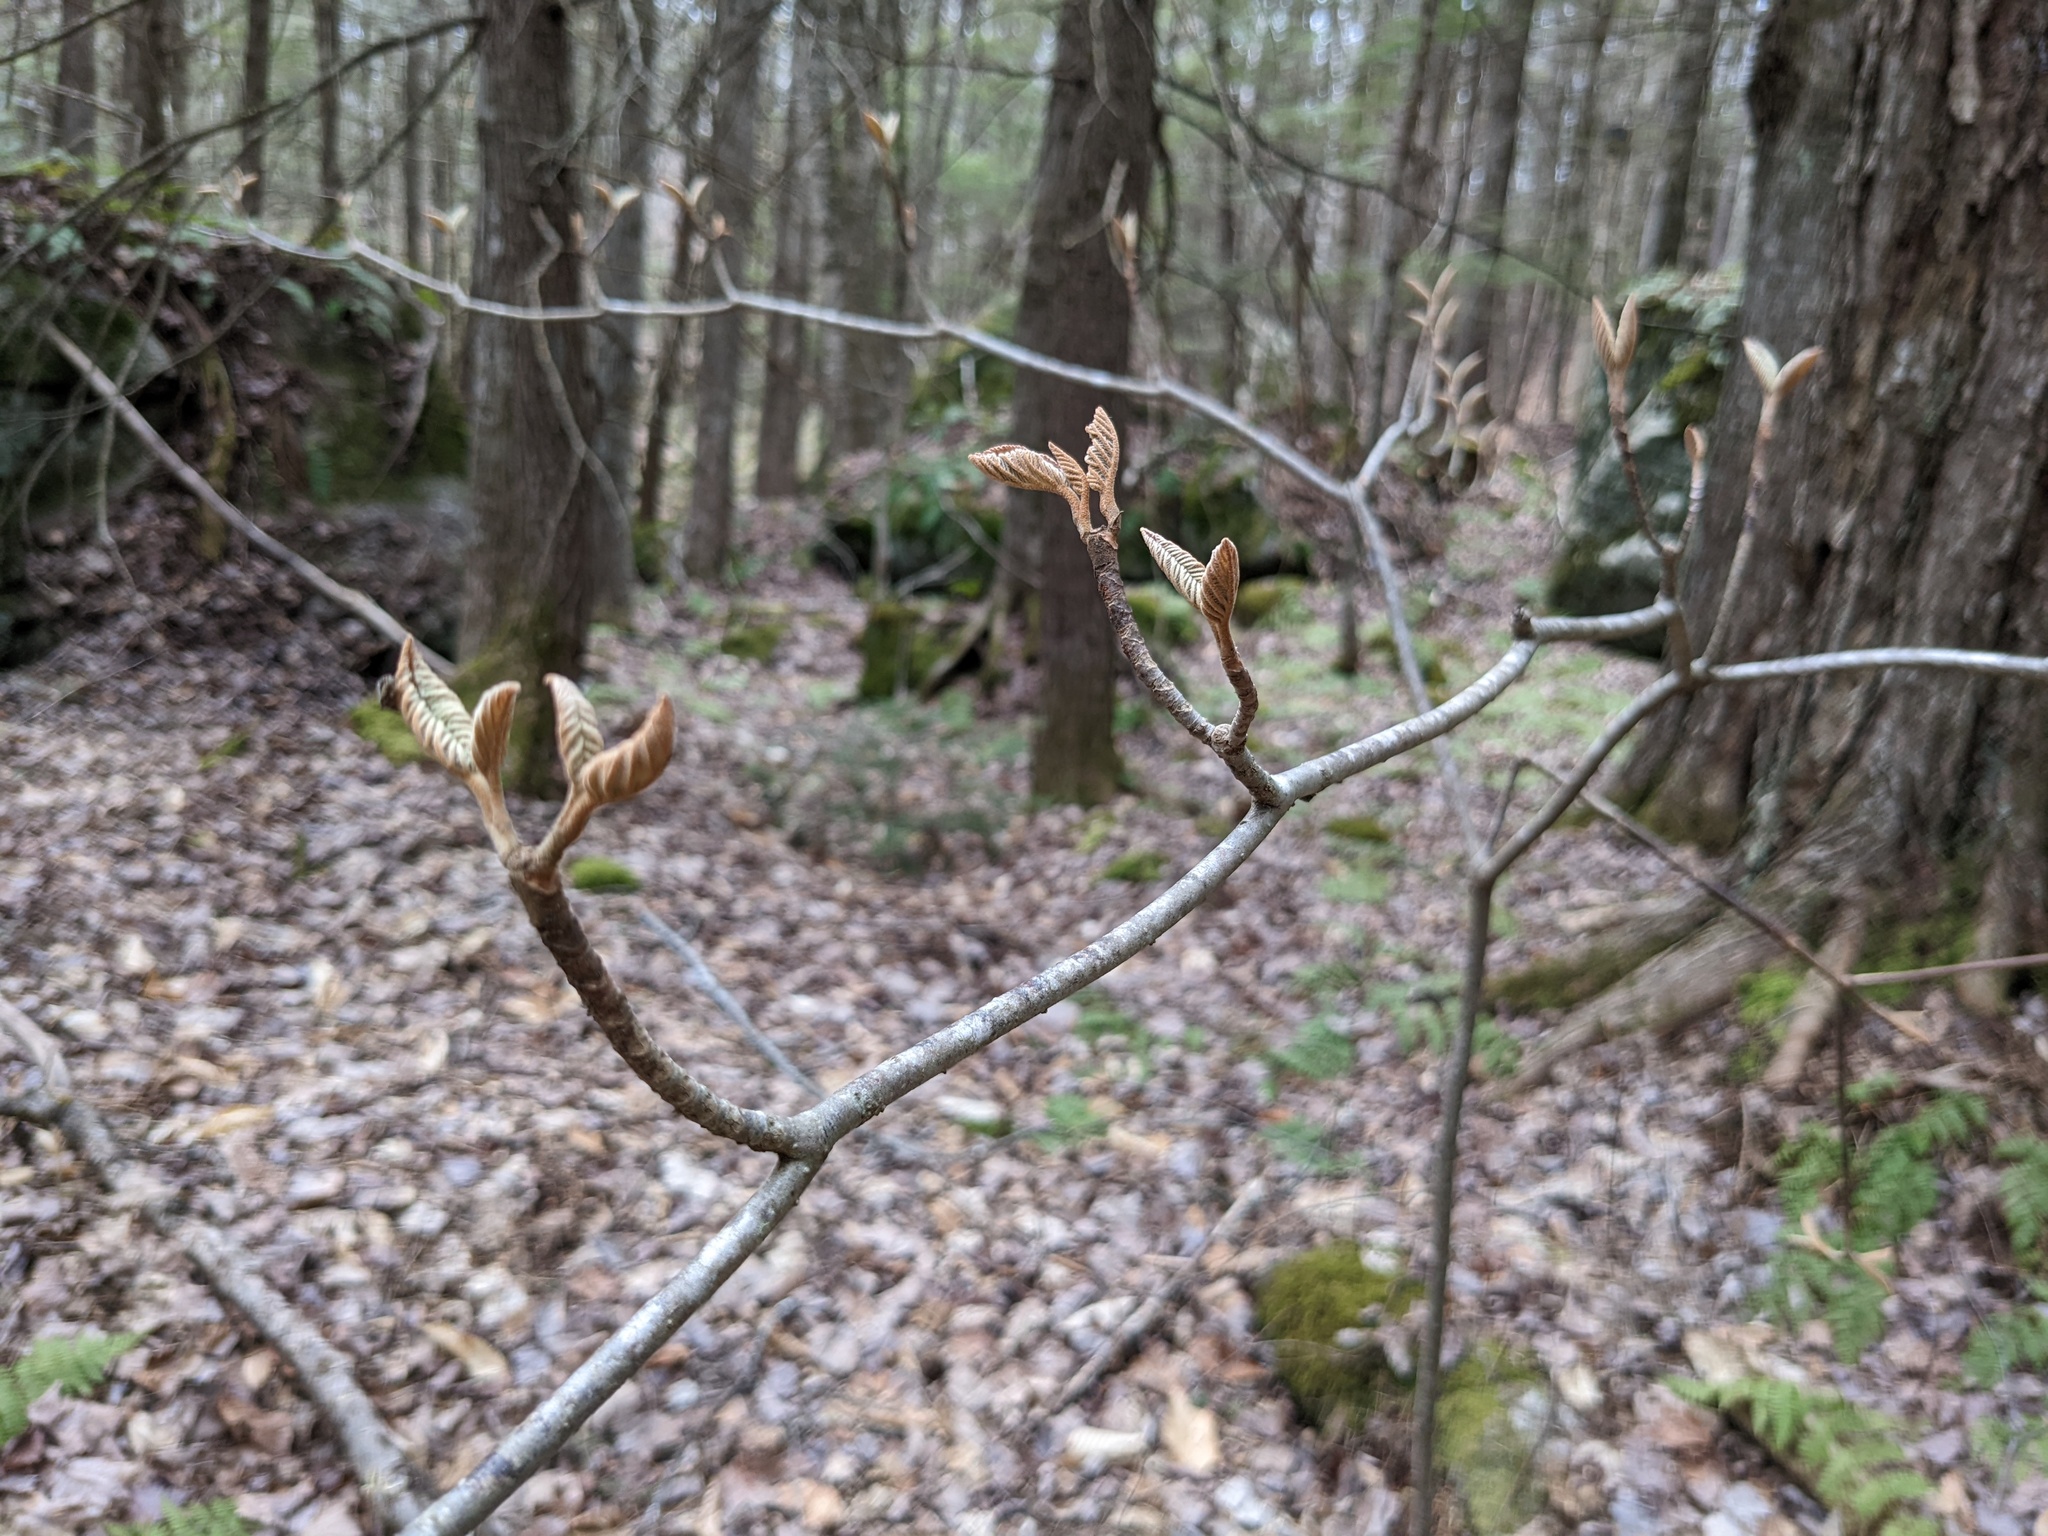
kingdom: Plantae
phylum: Tracheophyta
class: Magnoliopsida
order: Dipsacales
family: Viburnaceae
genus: Viburnum
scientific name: Viburnum lantanoides
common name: Hobblebush
